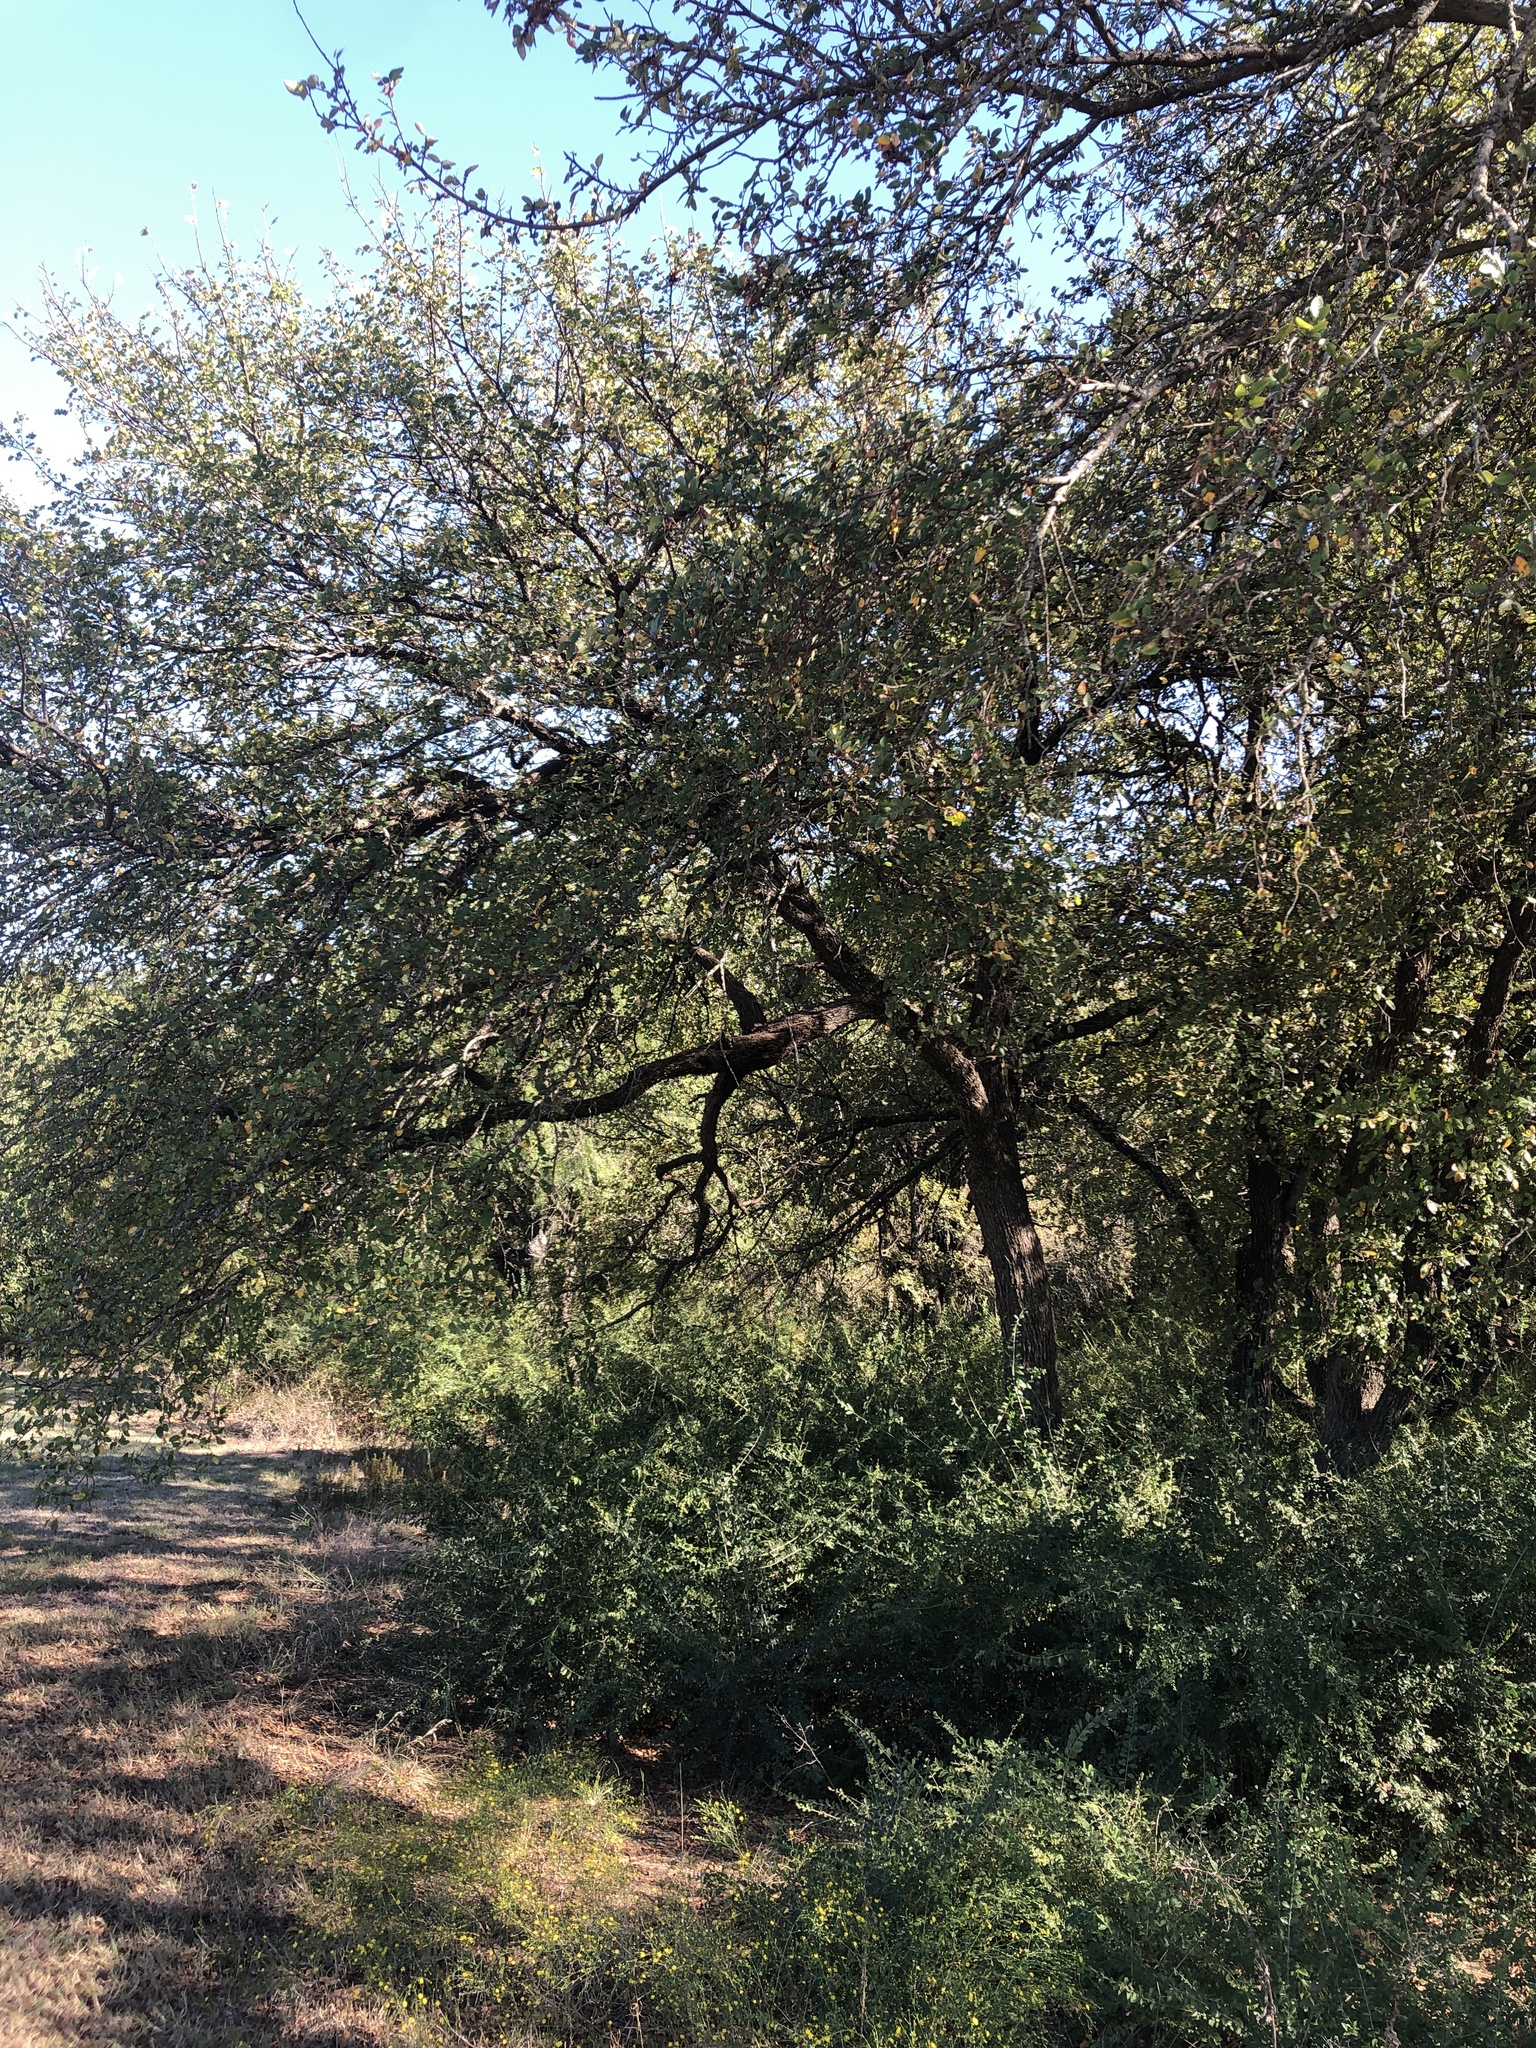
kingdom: Plantae
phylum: Tracheophyta
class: Magnoliopsida
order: Rosales
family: Ulmaceae
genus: Ulmus
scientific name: Ulmus crassifolia
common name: Basket elm
